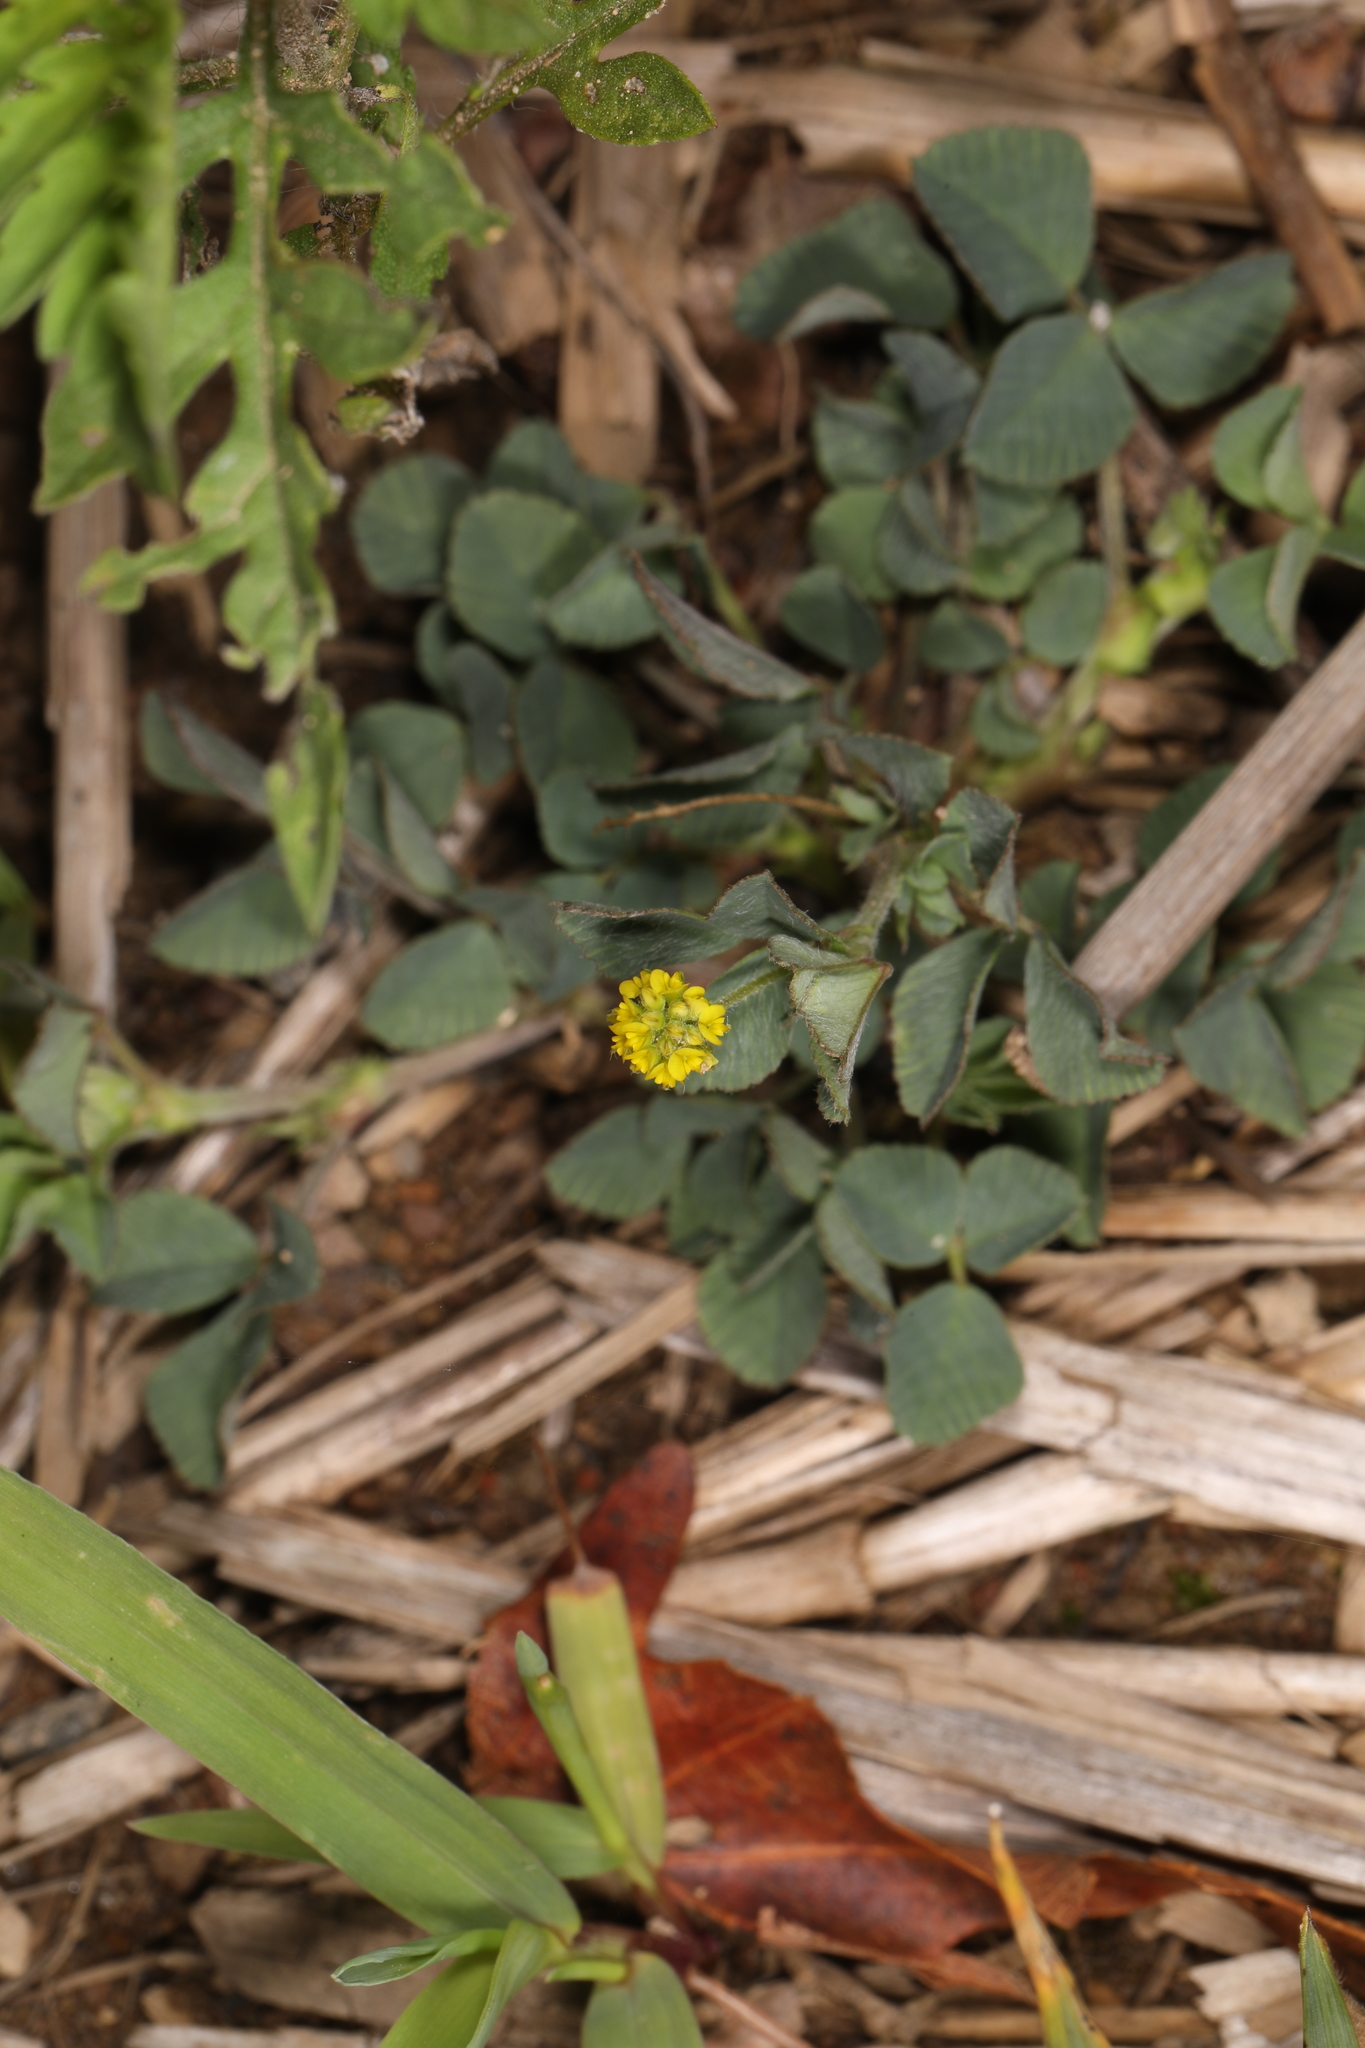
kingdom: Plantae
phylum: Tracheophyta
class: Magnoliopsida
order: Fabales
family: Fabaceae
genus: Medicago
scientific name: Medicago lupulina
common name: Black medick
